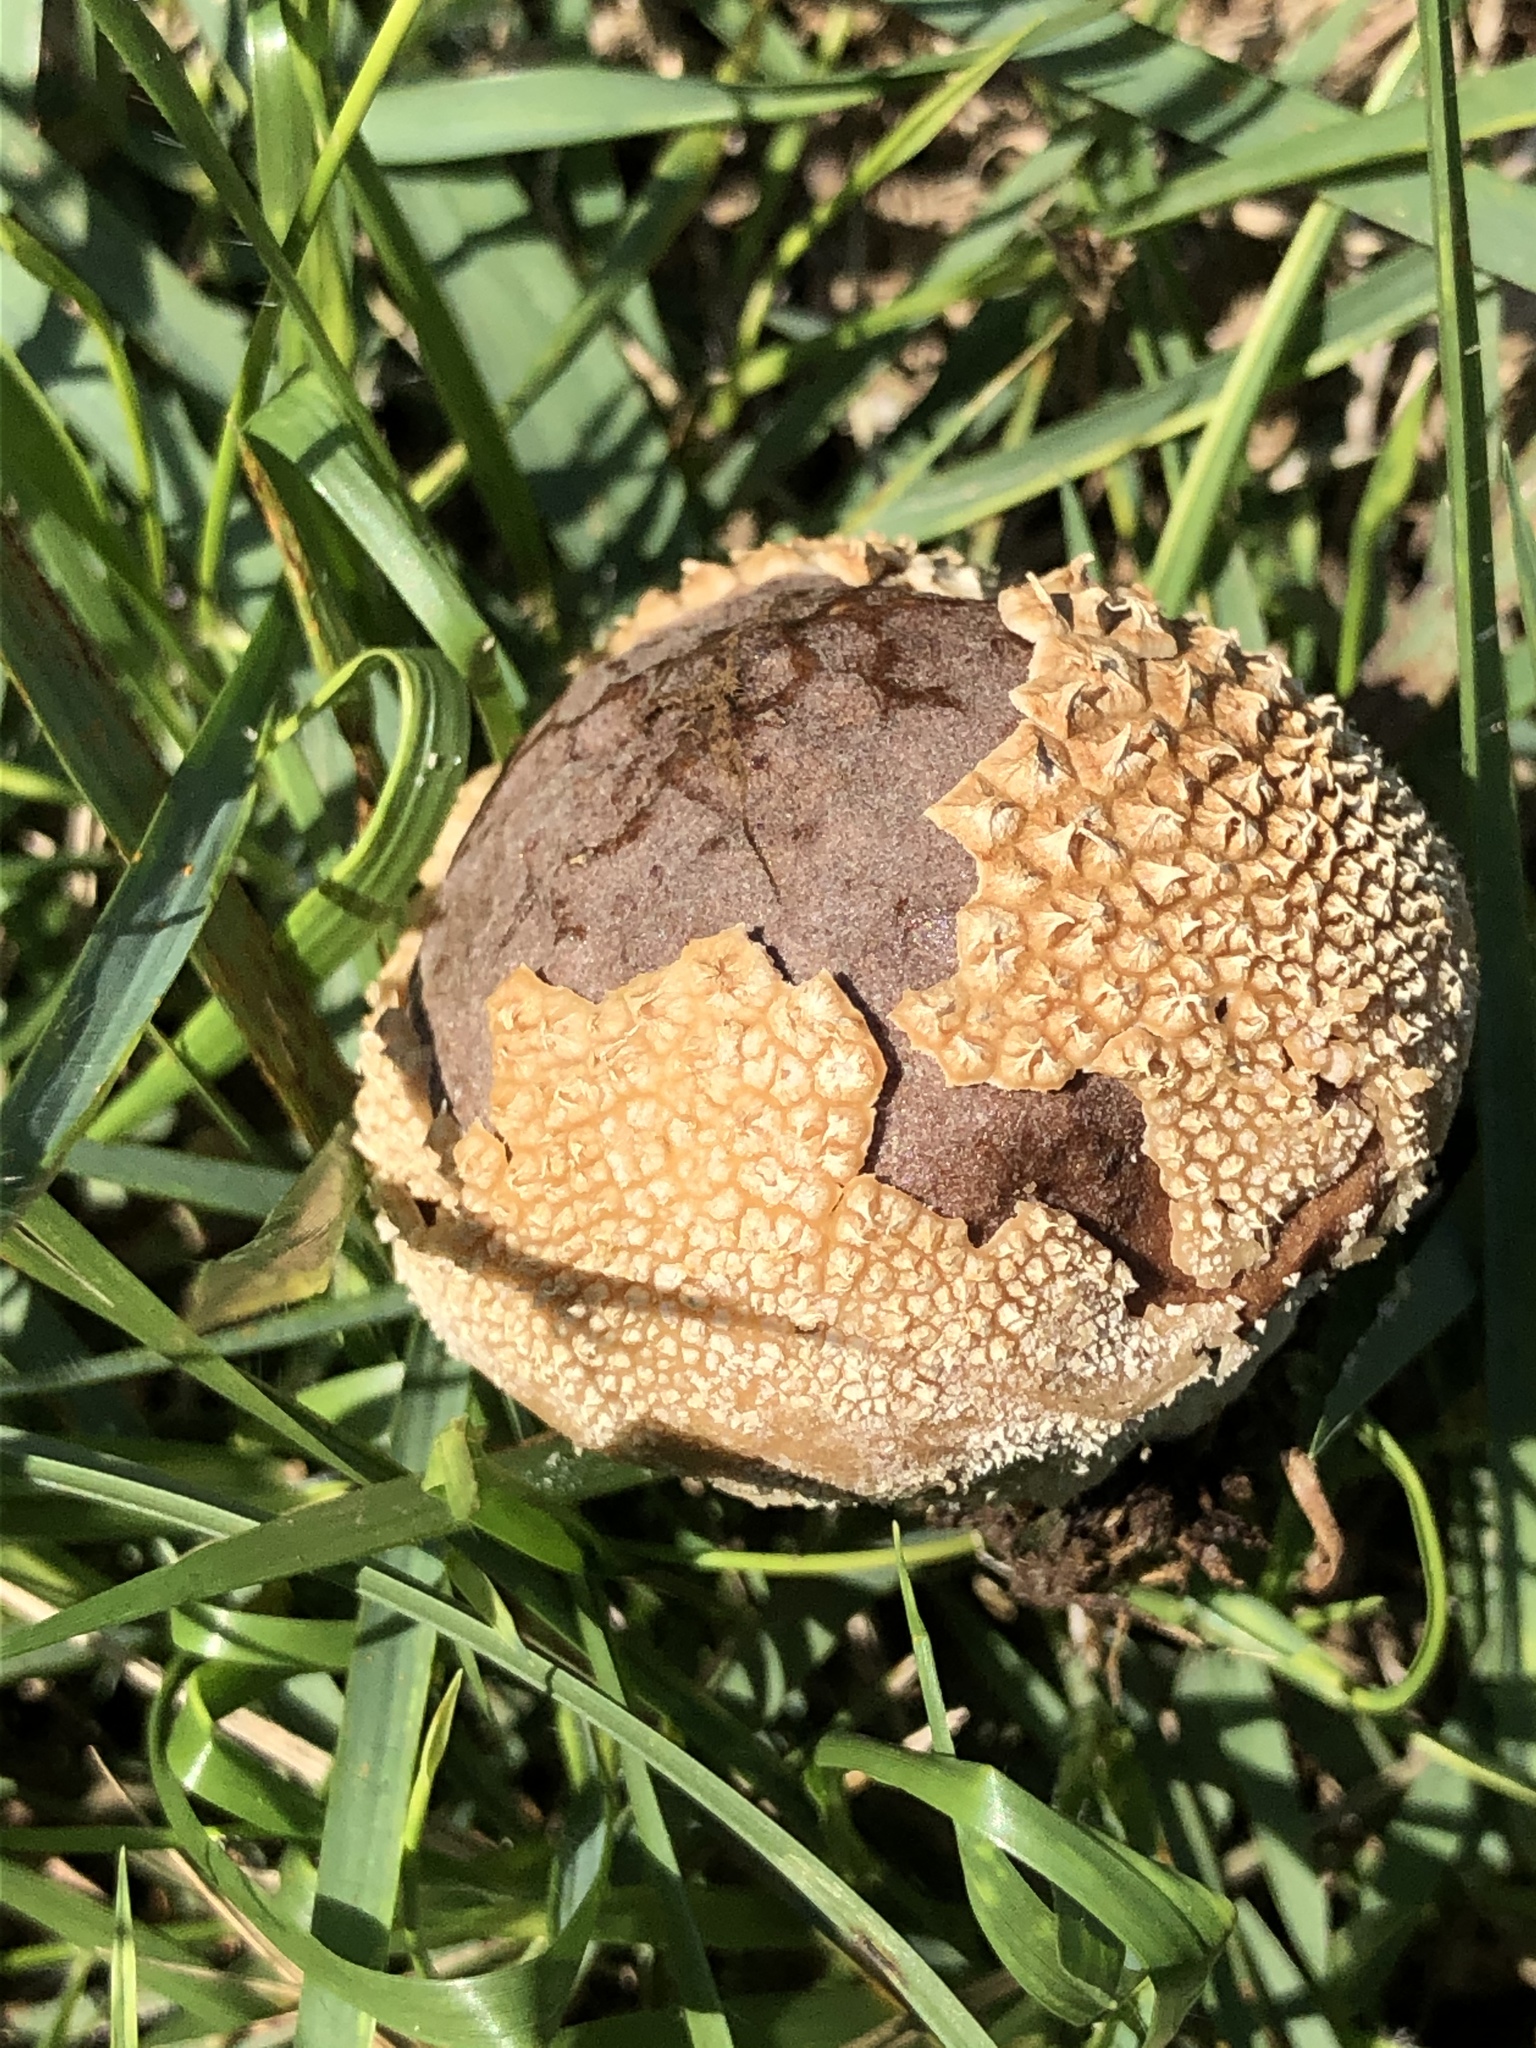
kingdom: Fungi
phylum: Basidiomycota
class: Agaricomycetes
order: Agaricales
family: Agaricaceae
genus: Lycoperdon
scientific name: Lycoperdon marginatum
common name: Peeling puffball
